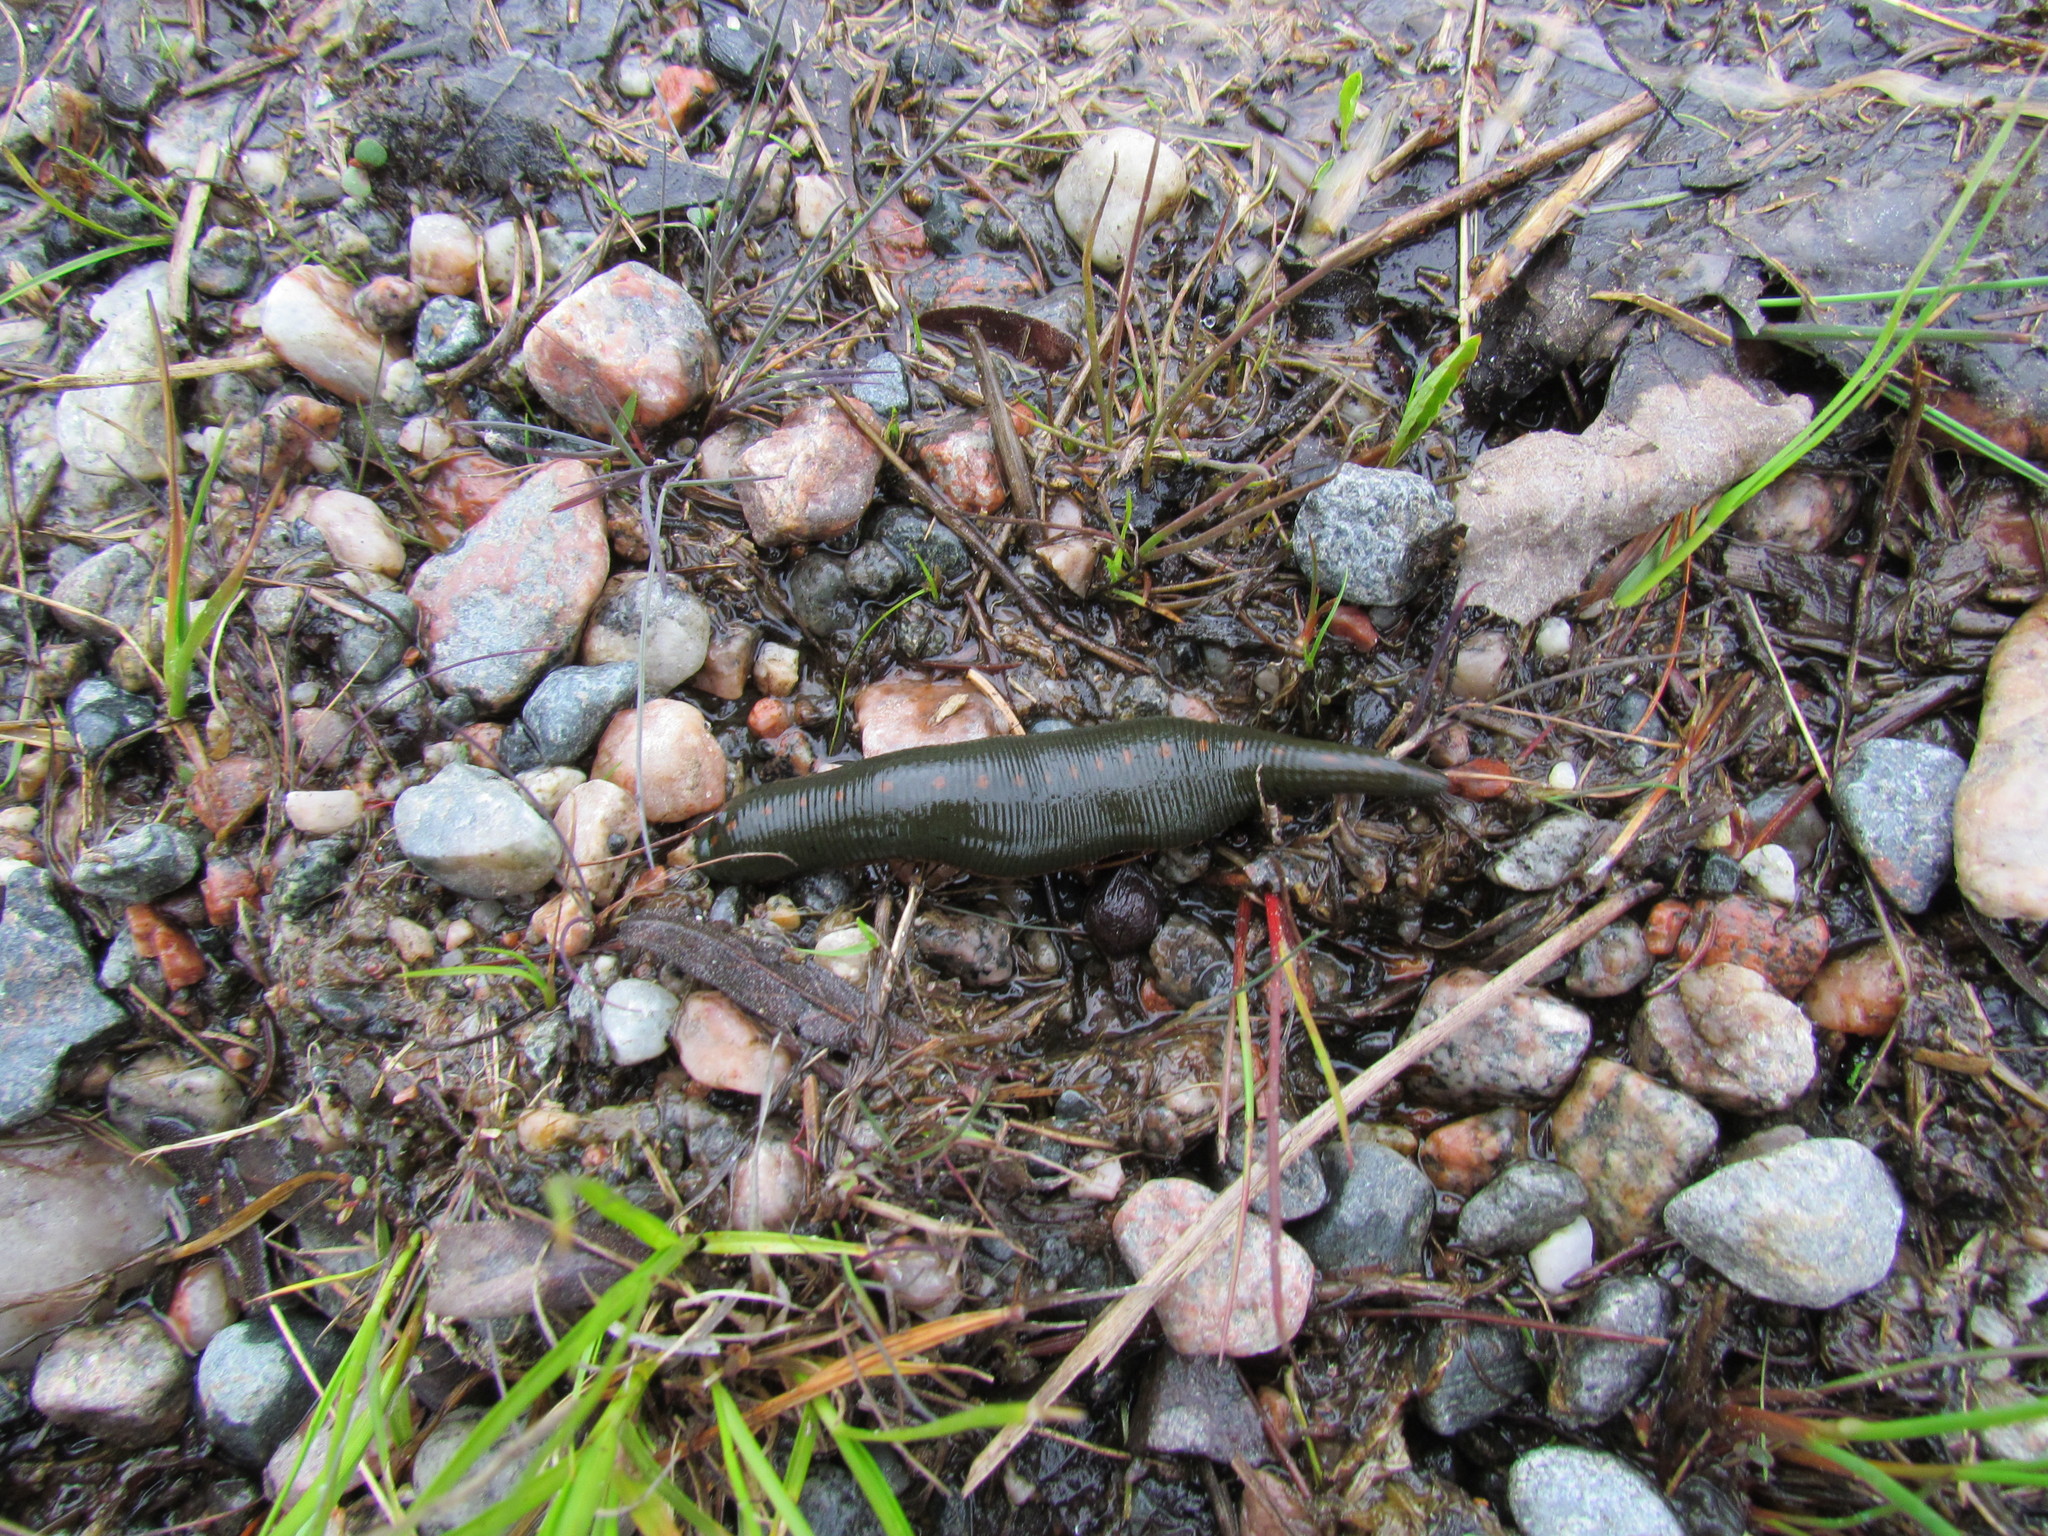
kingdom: Animalia
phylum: Annelida
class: Clitellata
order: Arhynchobdellida
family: Hirudinidae
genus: Macrobdella
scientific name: Macrobdella decora
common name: North american leech
